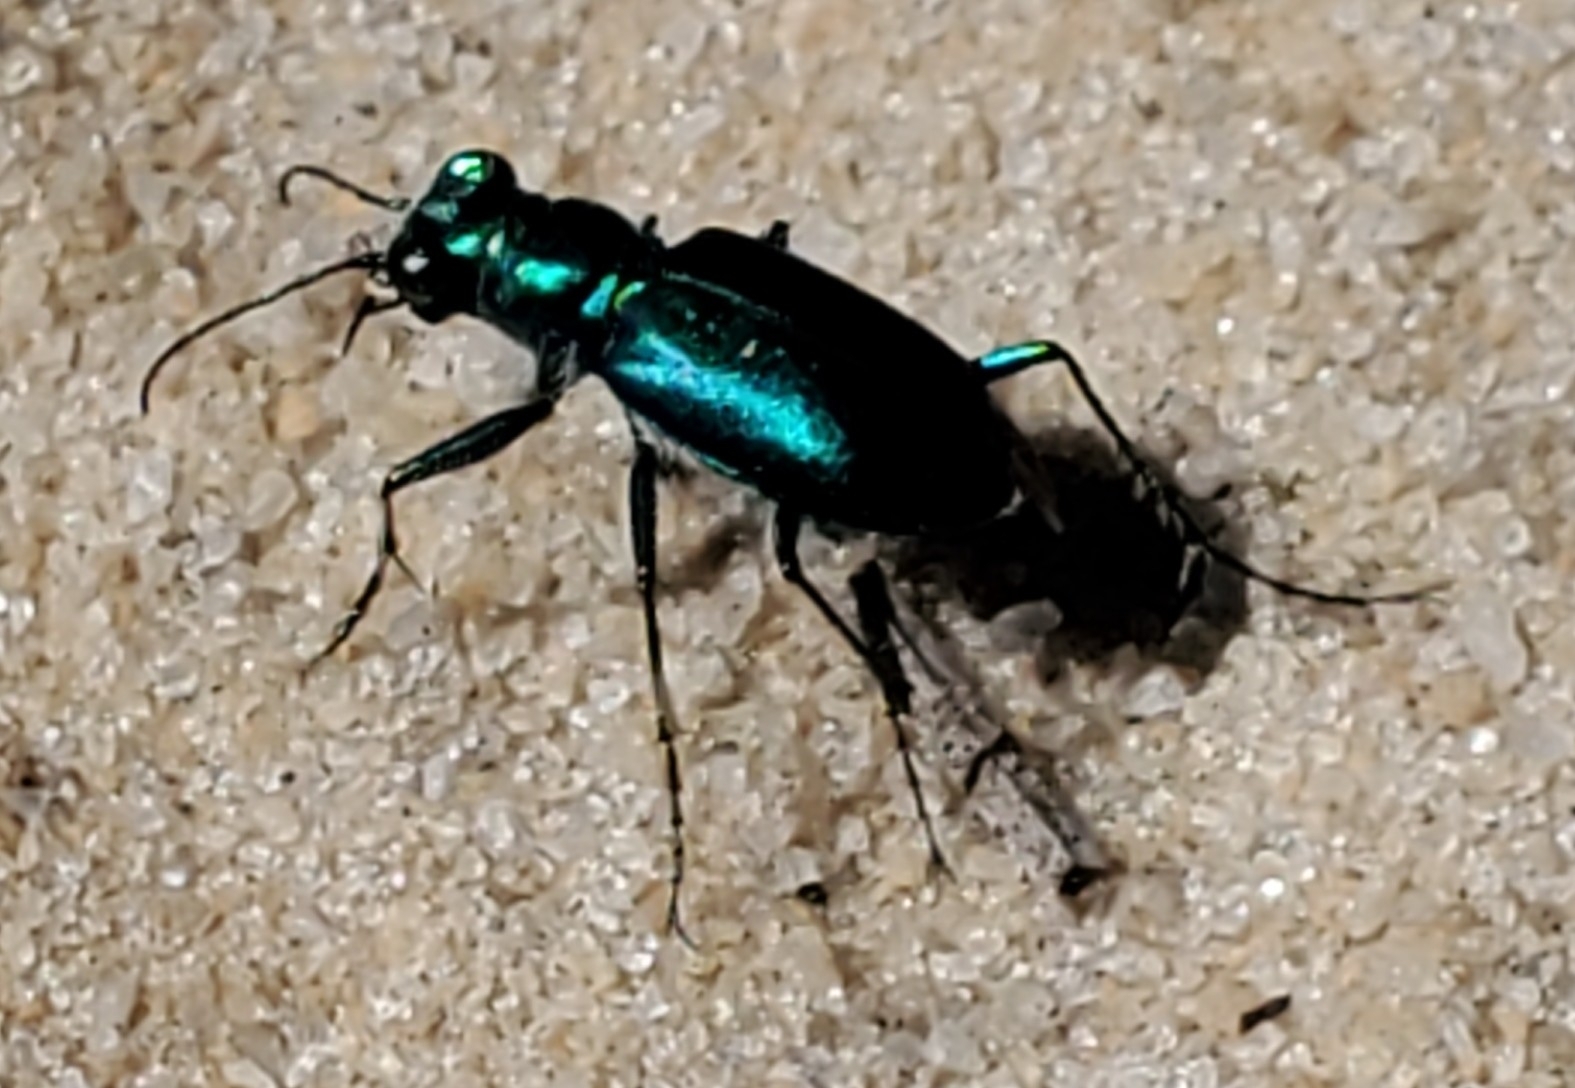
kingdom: Animalia
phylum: Arthropoda
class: Insecta
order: Coleoptera
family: Carabidae
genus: Cicindela
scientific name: Cicindela scutellaris
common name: Festive tiger beetle
